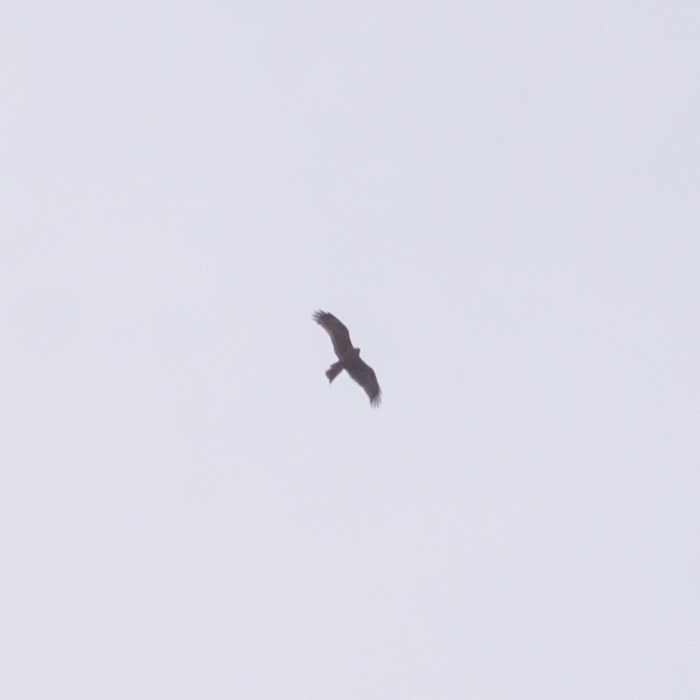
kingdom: Animalia
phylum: Chordata
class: Aves
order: Accipitriformes
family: Accipitridae
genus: Milvus
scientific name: Milvus migrans
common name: Black kite
